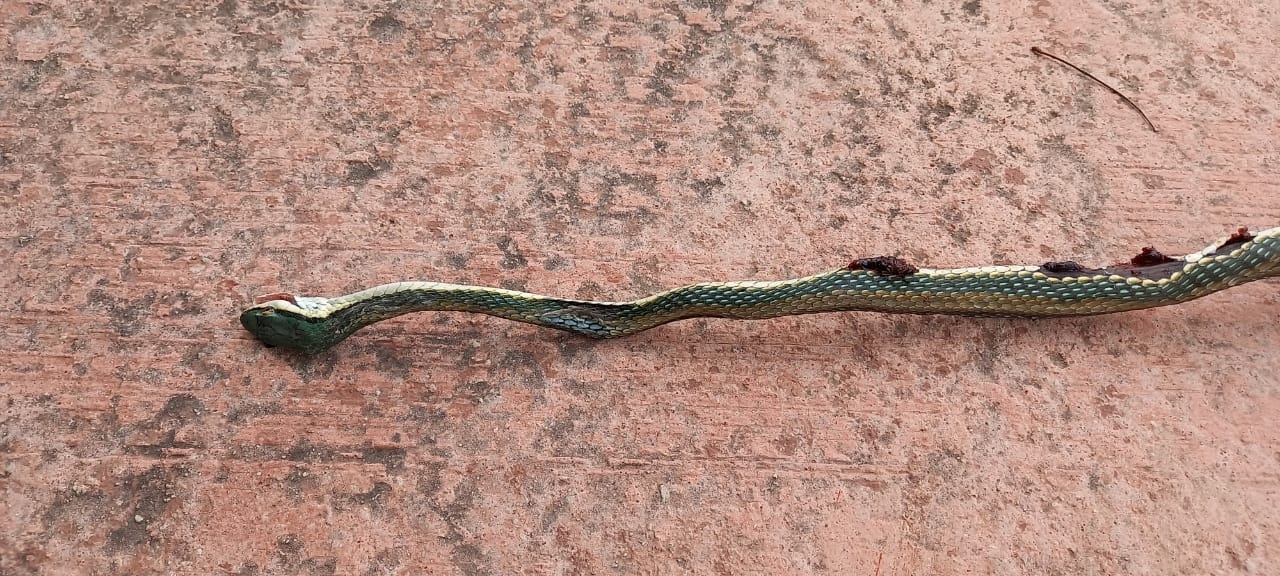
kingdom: Animalia
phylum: Chordata
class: Squamata
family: Colubridae
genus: Leptophis
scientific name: Leptophis mexicanus
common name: Mexican parrot snake
